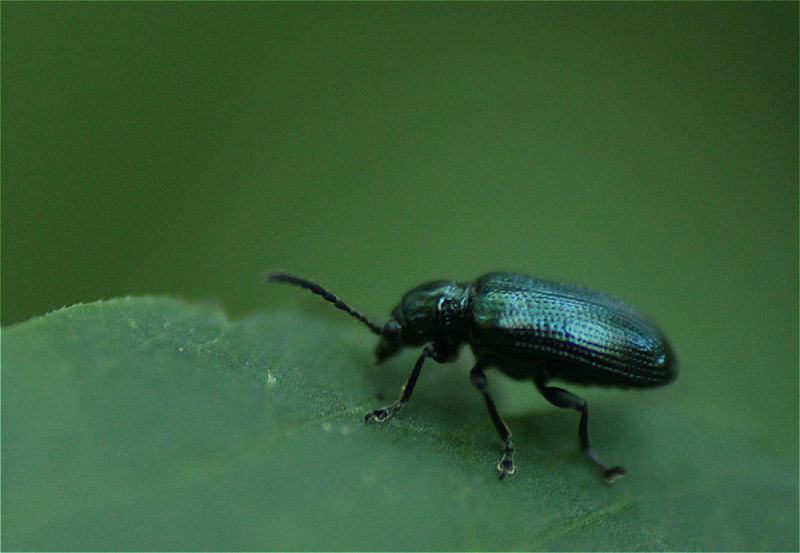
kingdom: Animalia
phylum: Arthropoda
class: Insecta
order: Coleoptera
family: Chrysomelidae
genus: Oulema
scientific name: Oulema gallaeciana
